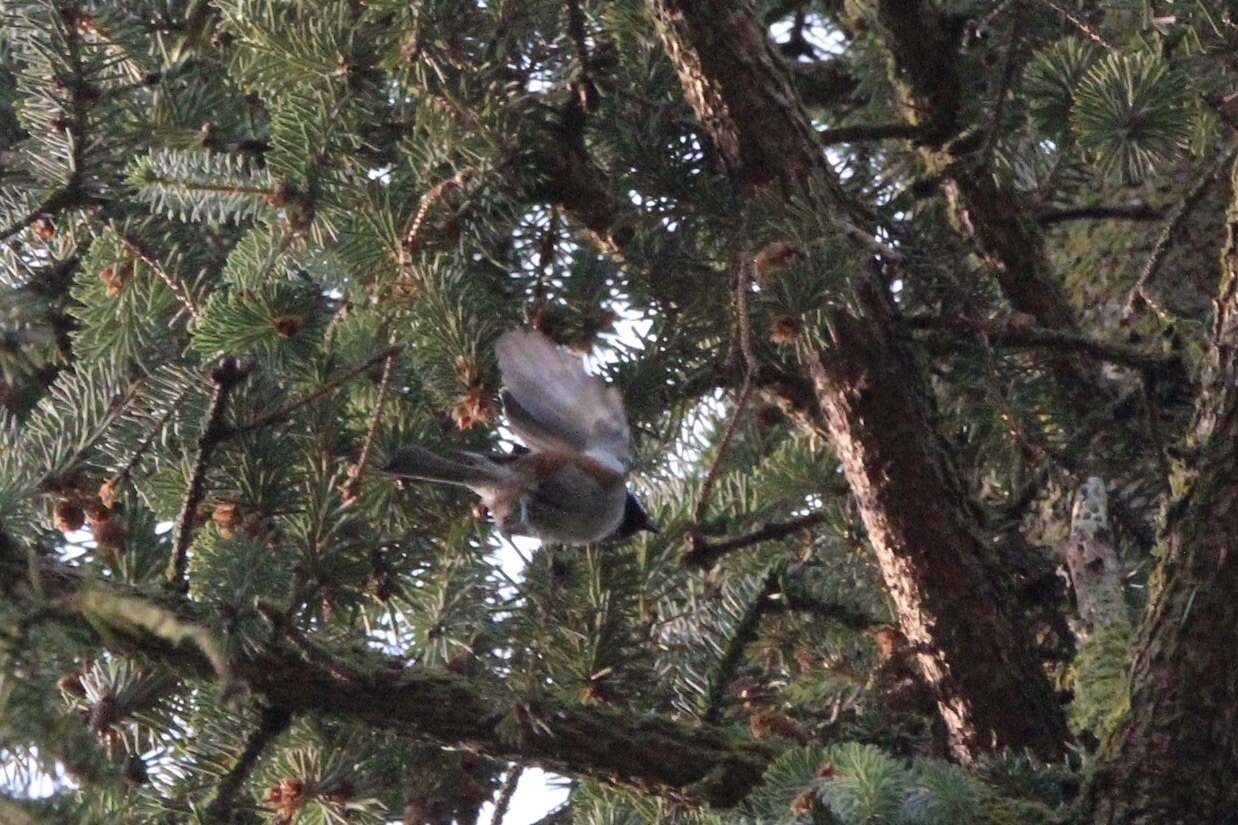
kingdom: Animalia
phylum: Chordata
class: Aves
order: Passeriformes
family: Paridae
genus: Poecile
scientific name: Poecile rufescens
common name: Chestnut-backed chickadee
